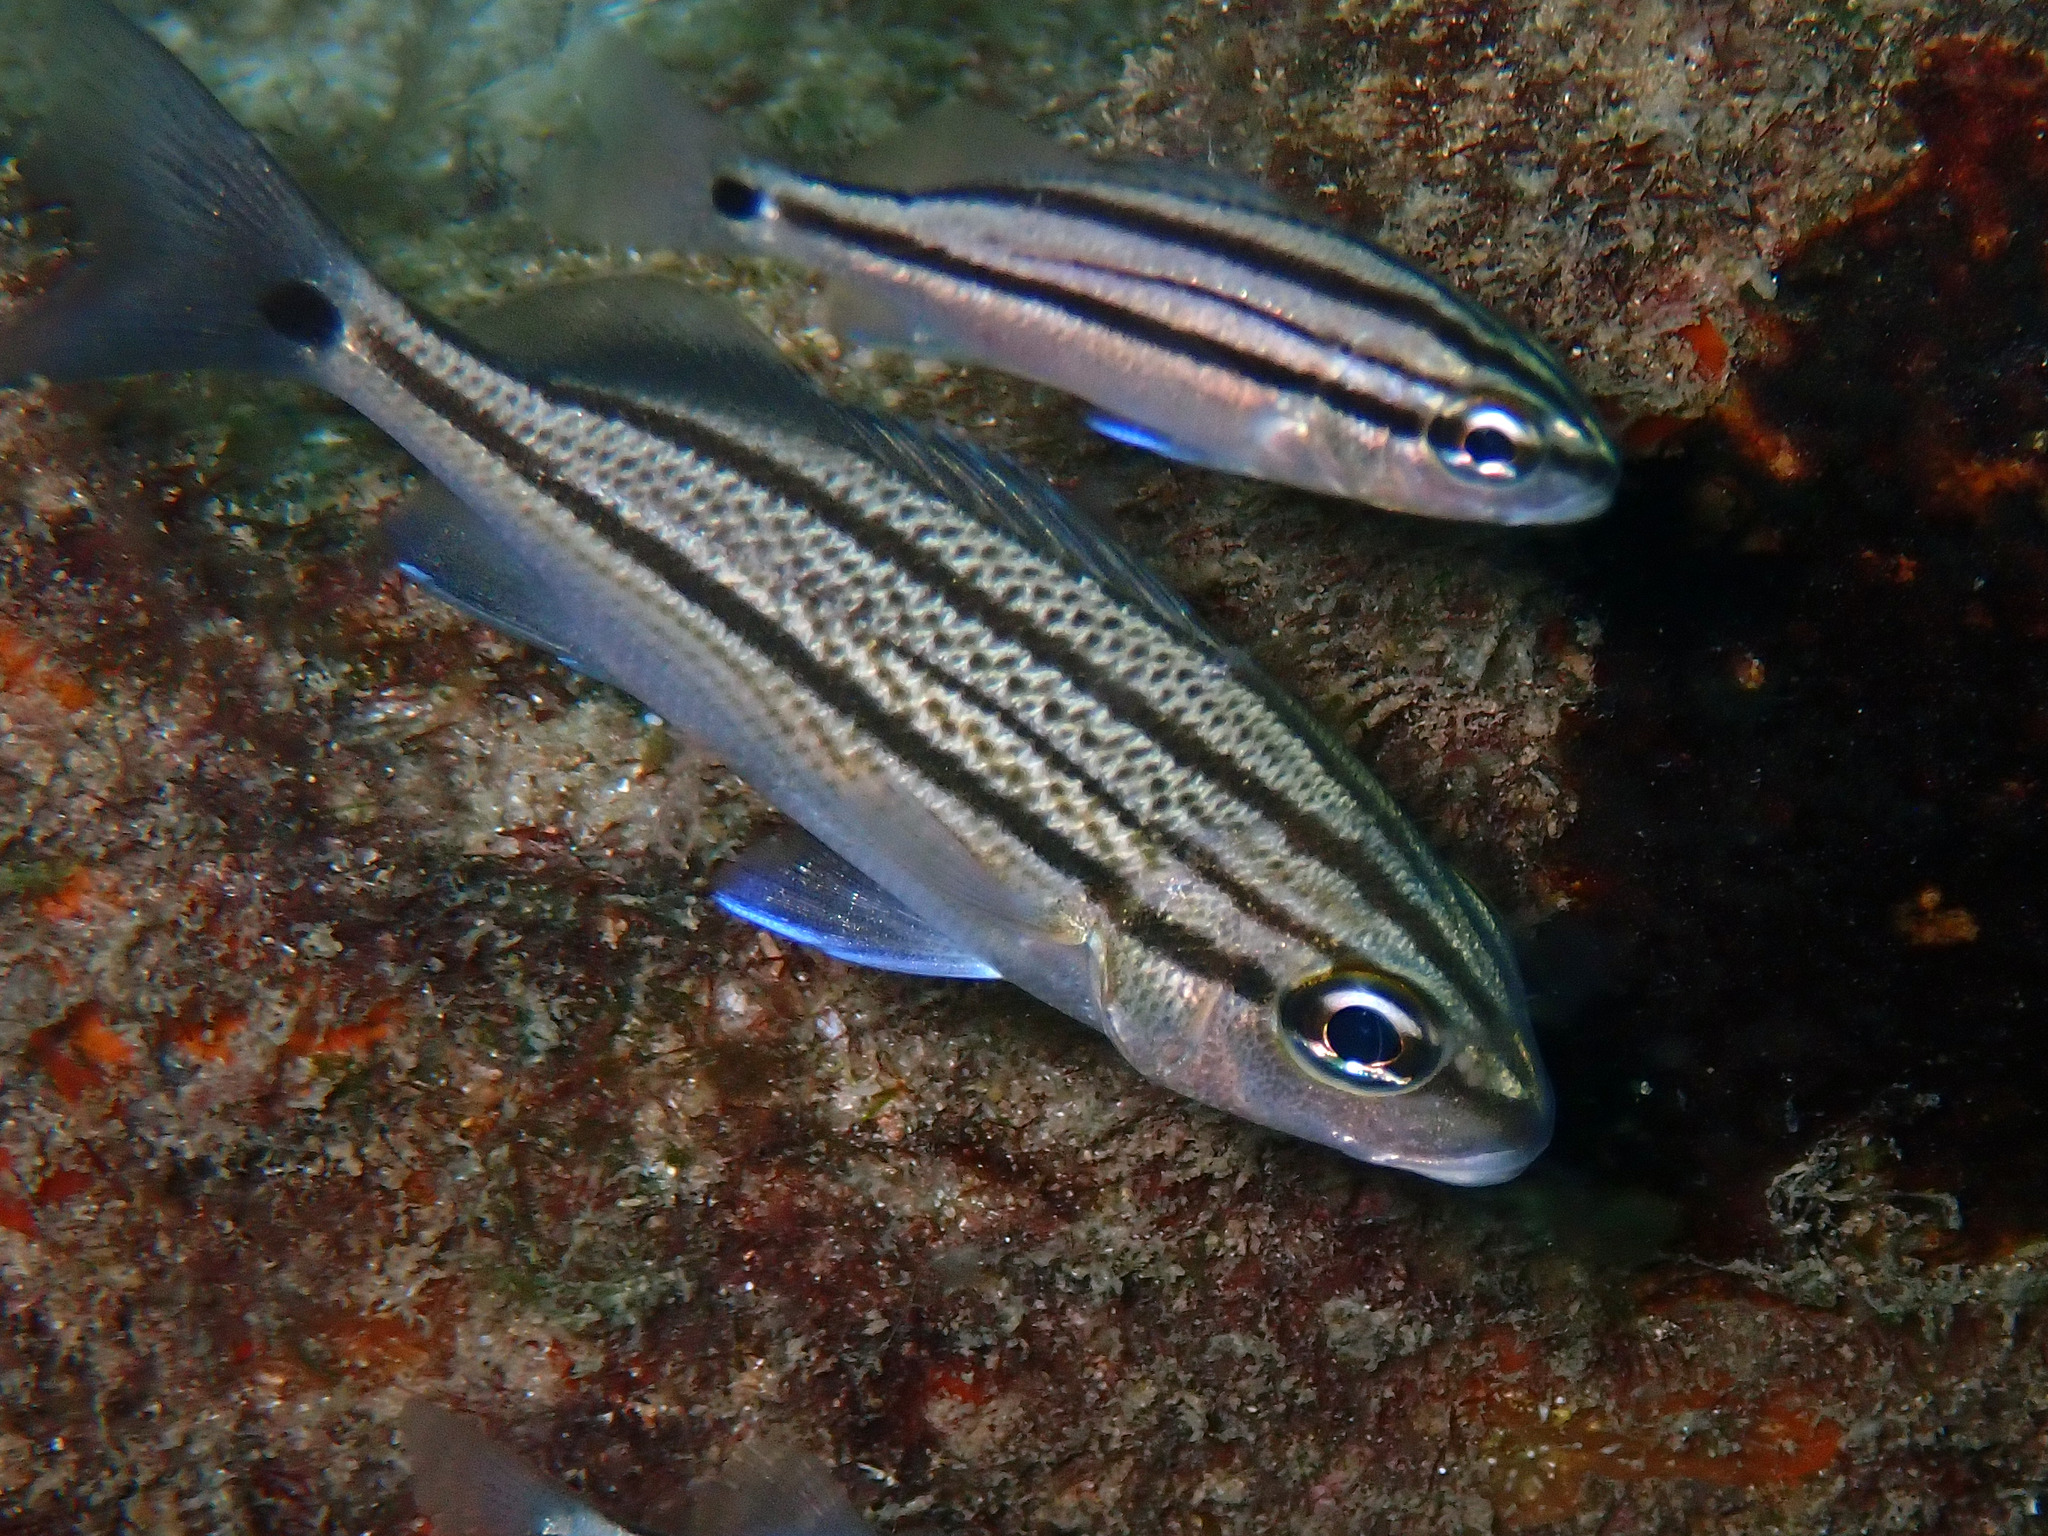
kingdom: Animalia
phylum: Chordata
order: Perciformes
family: Haemulidae
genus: Haemulon
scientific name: Haemulon parra
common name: Sailor's choice
